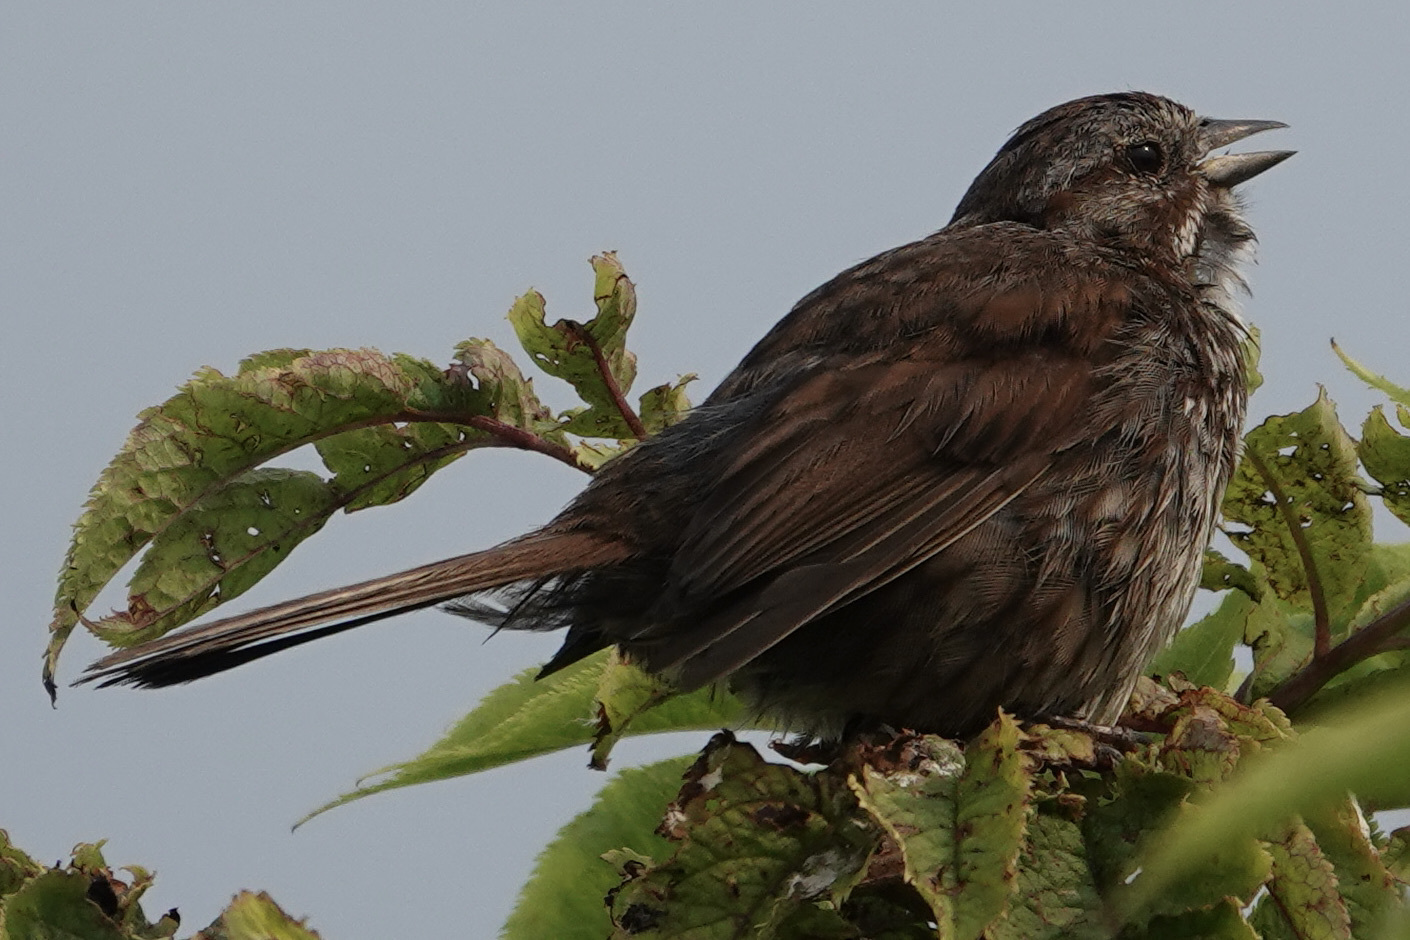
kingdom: Animalia
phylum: Chordata
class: Aves
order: Passeriformes
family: Passerellidae
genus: Melospiza
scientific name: Melospiza melodia
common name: Song sparrow
